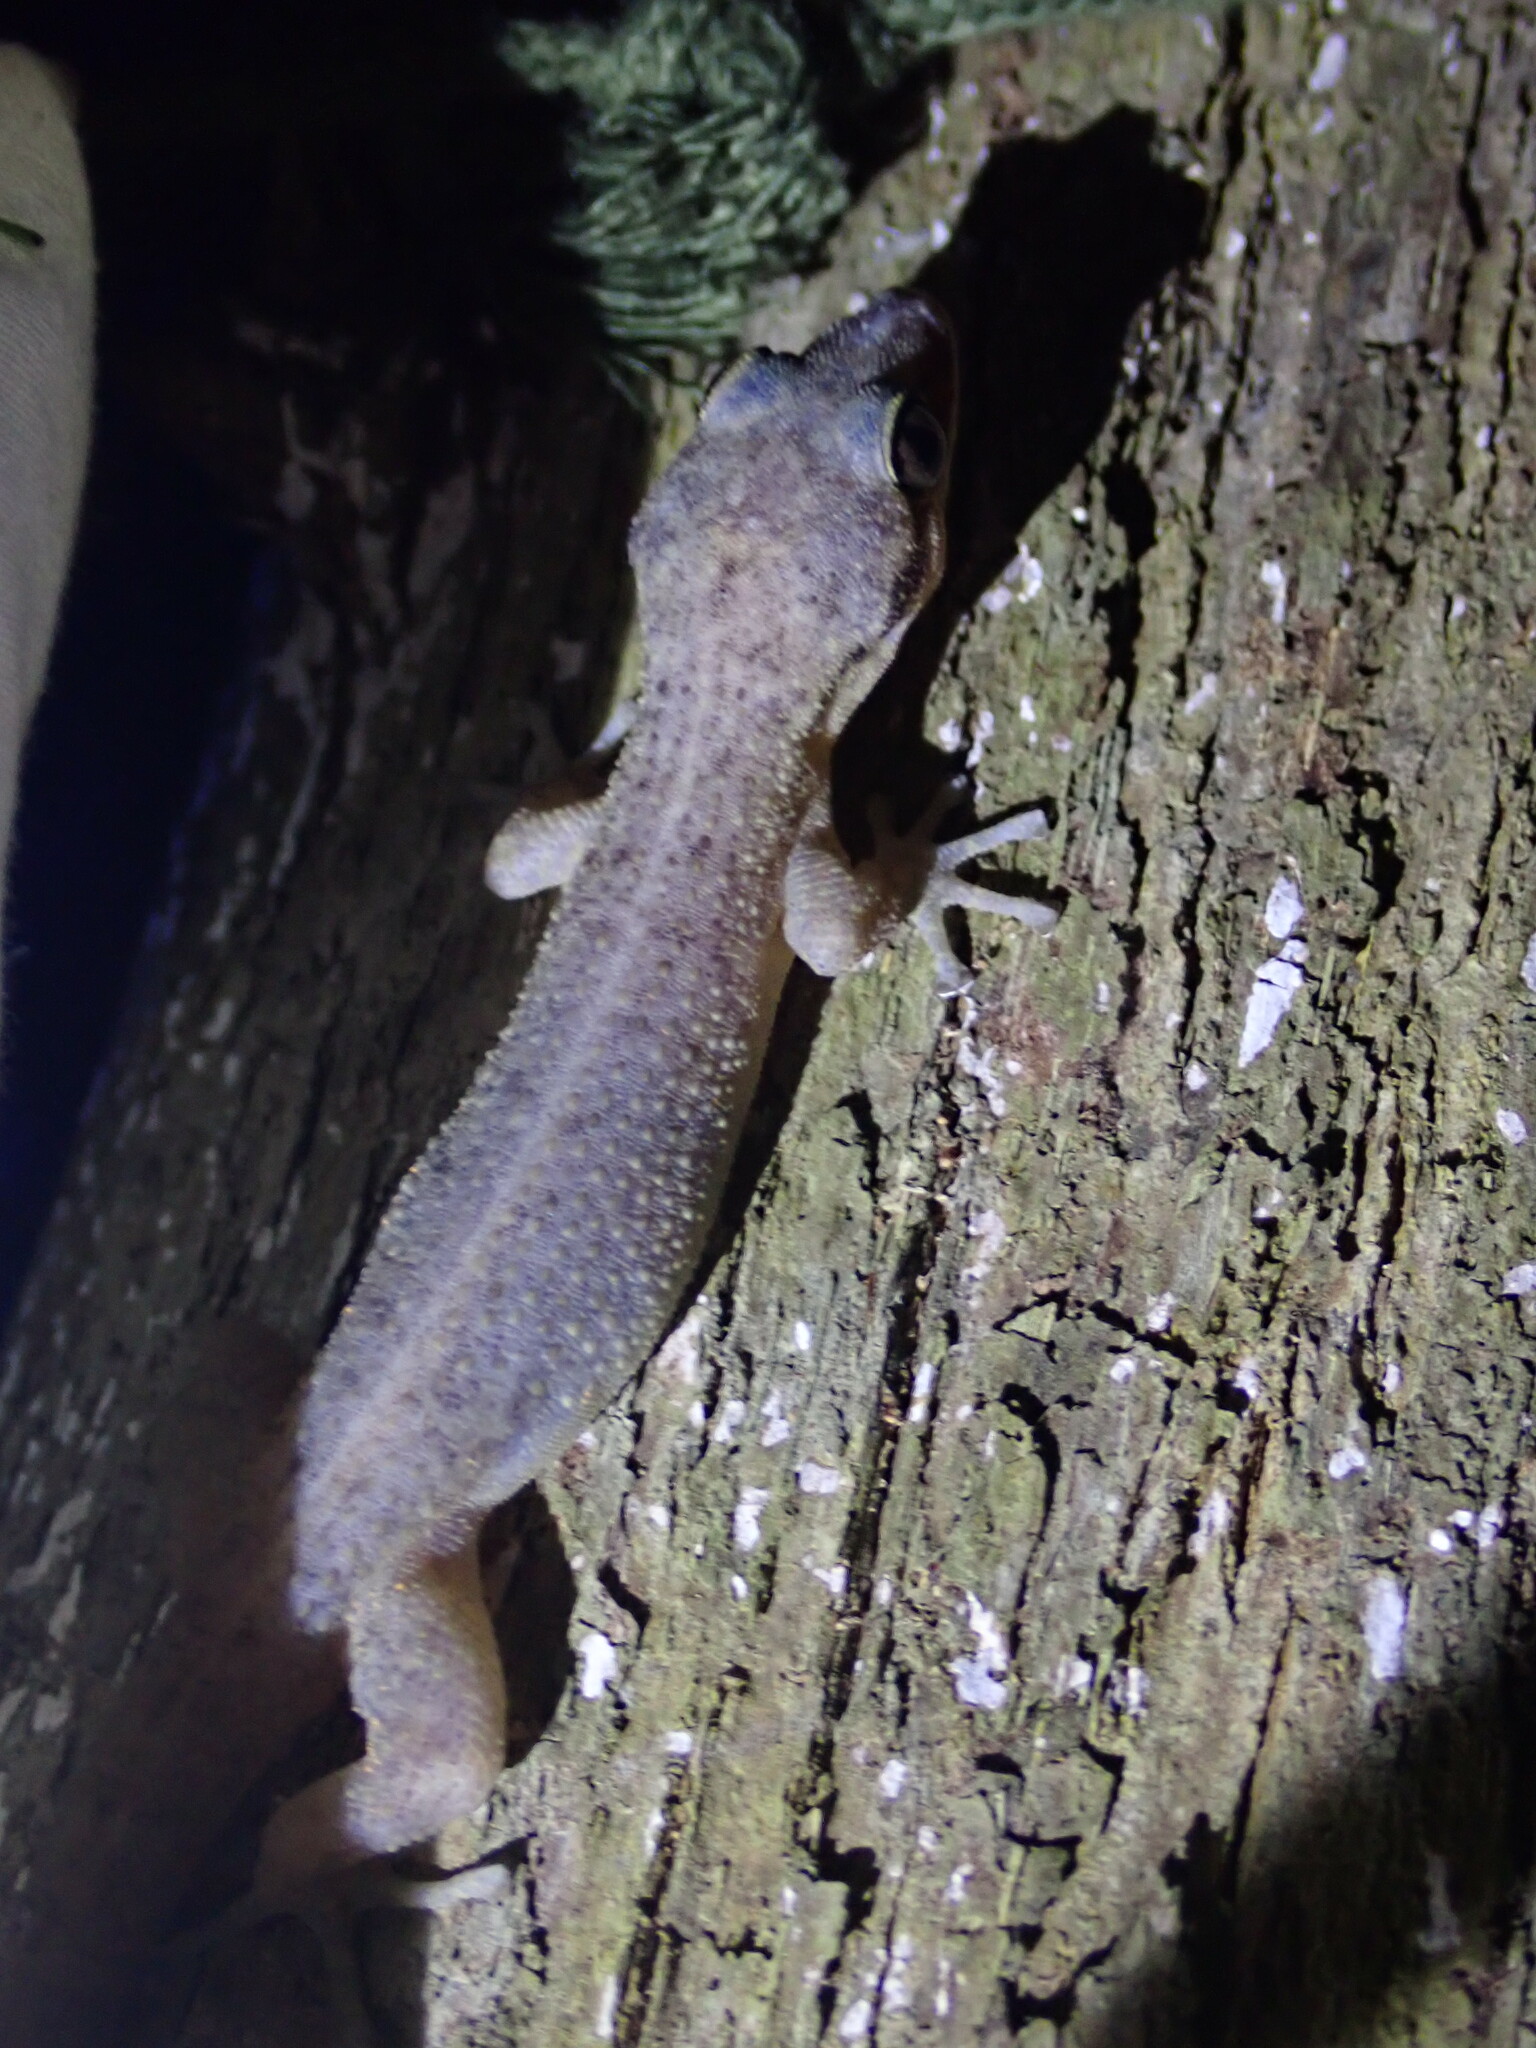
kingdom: Animalia
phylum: Chordata
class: Squamata
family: Phyllodactylidae
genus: Phyllodactylus
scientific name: Phyllodactylus insularis
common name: Belize leaf-toed gecko
